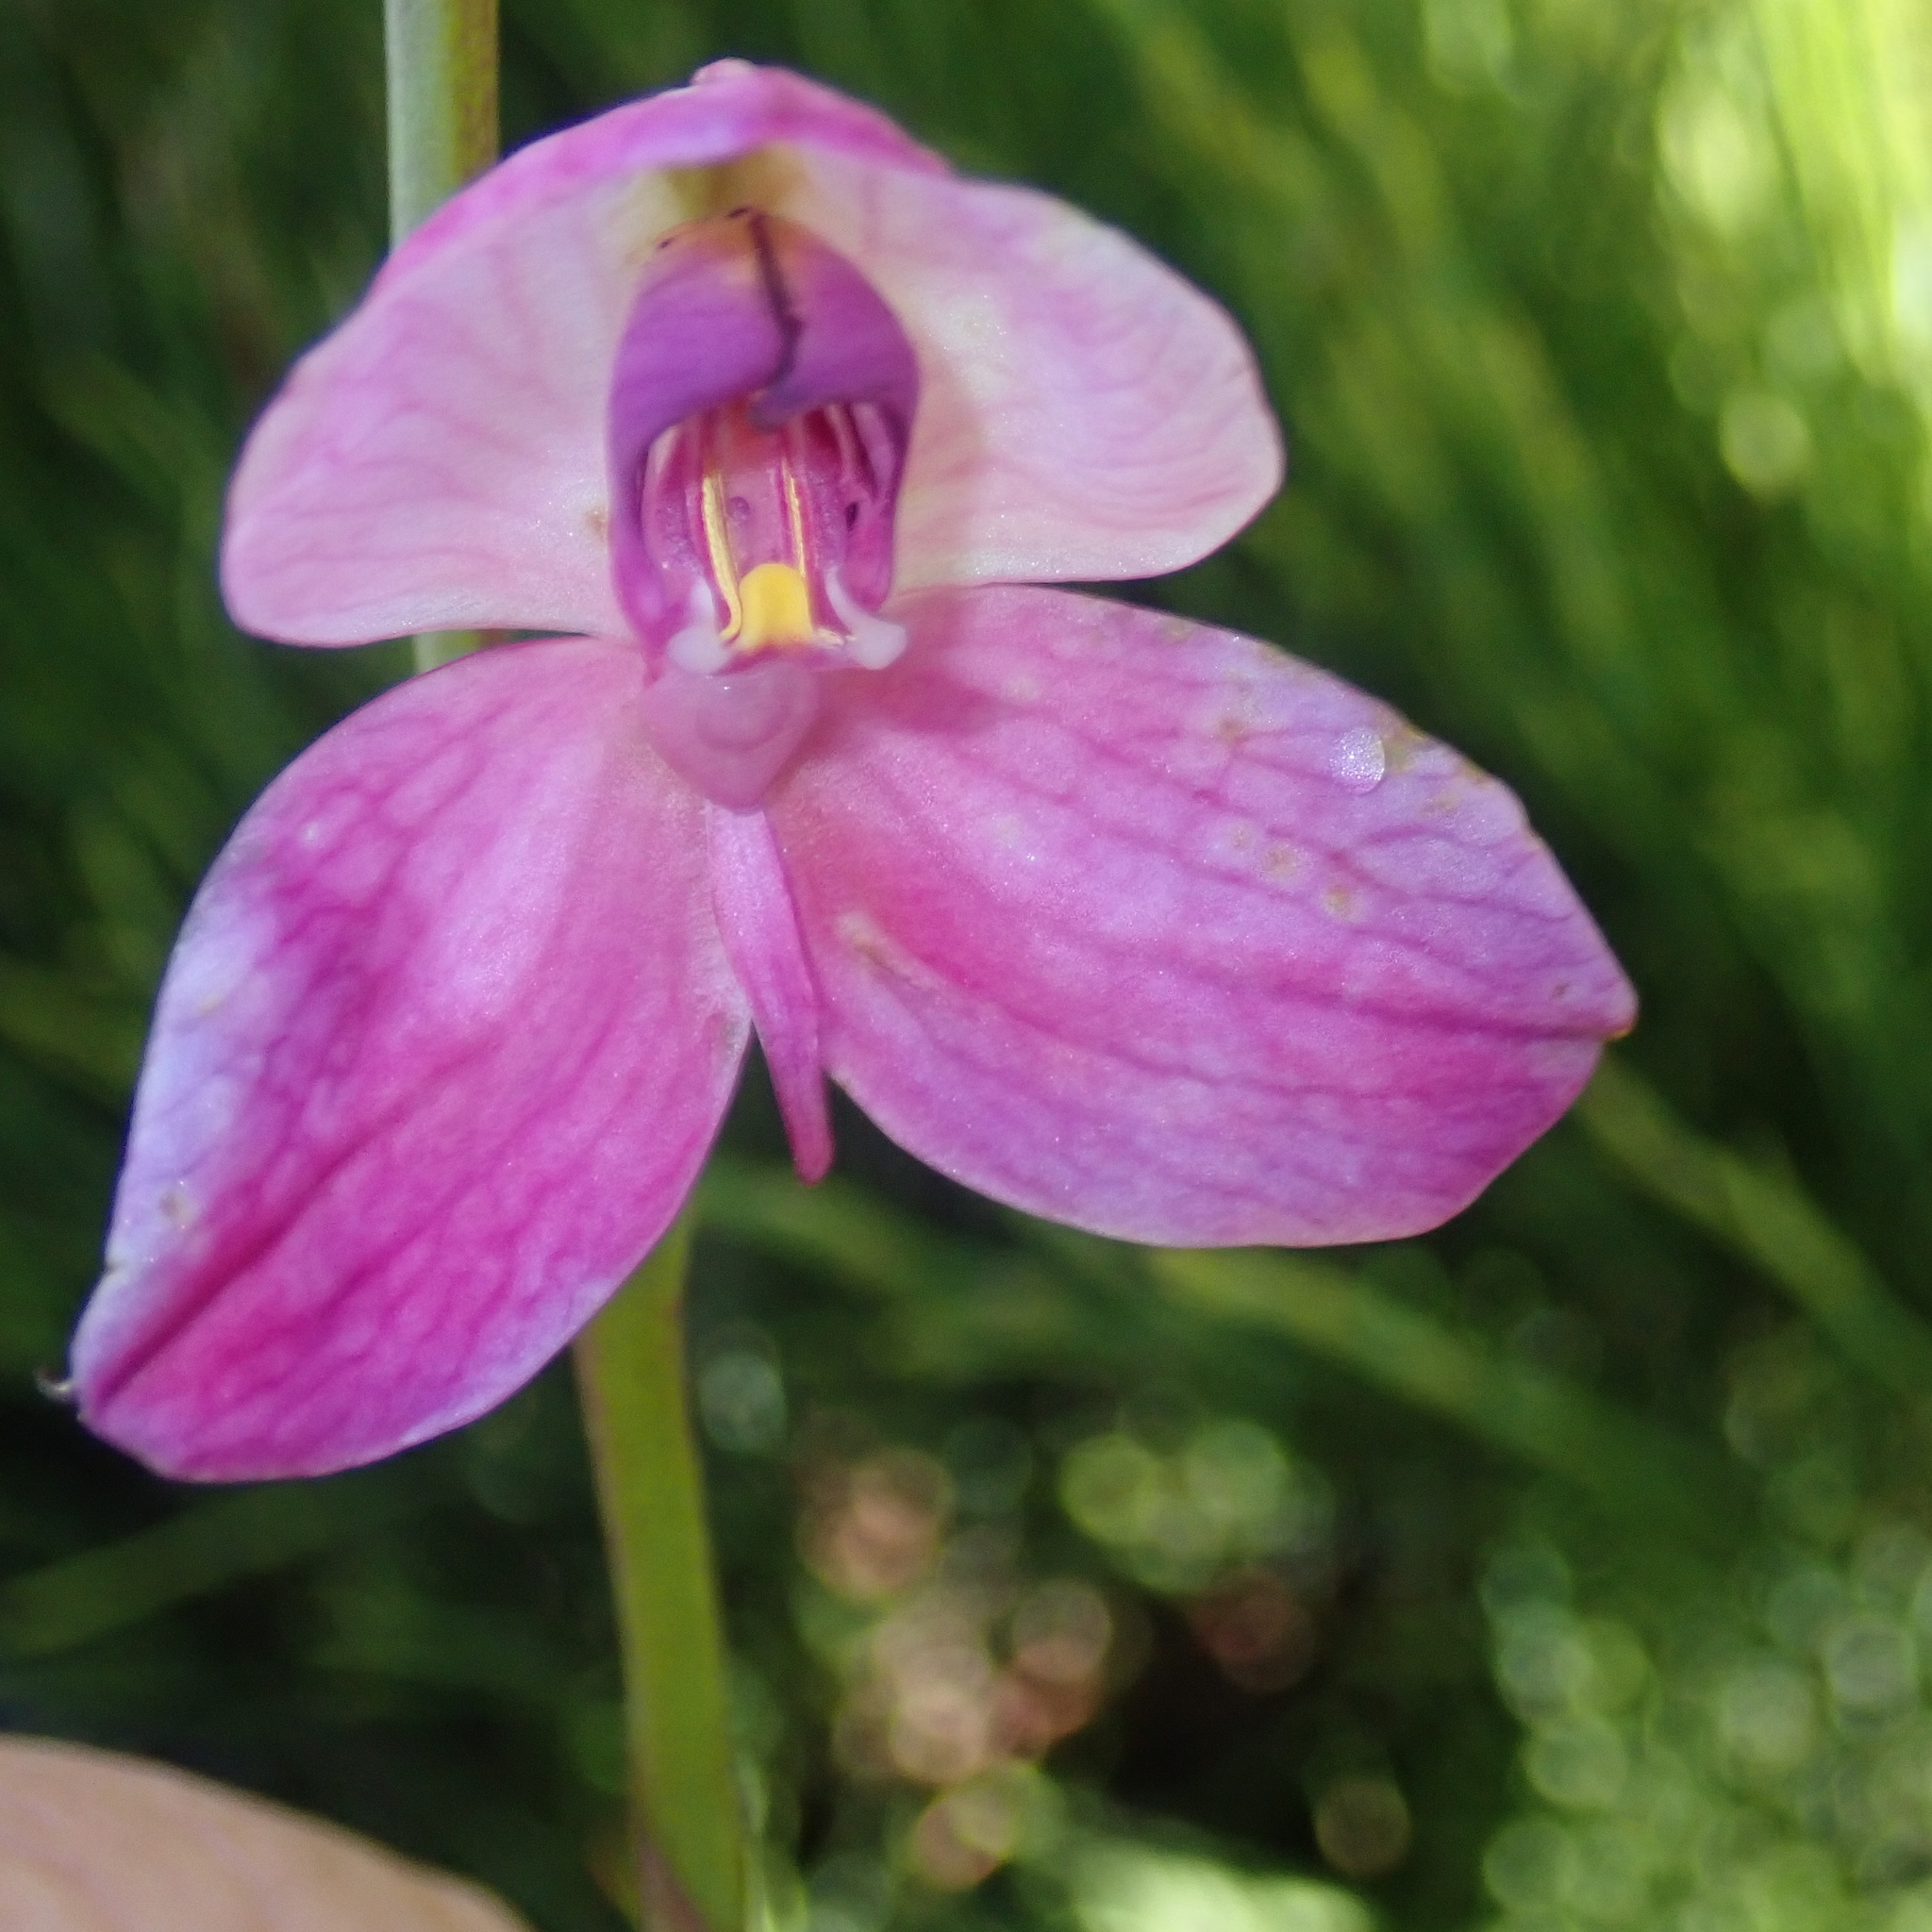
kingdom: Plantae
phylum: Tracheophyta
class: Liliopsida
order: Asparagales
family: Orchidaceae
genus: Disa
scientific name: Disa racemosa
